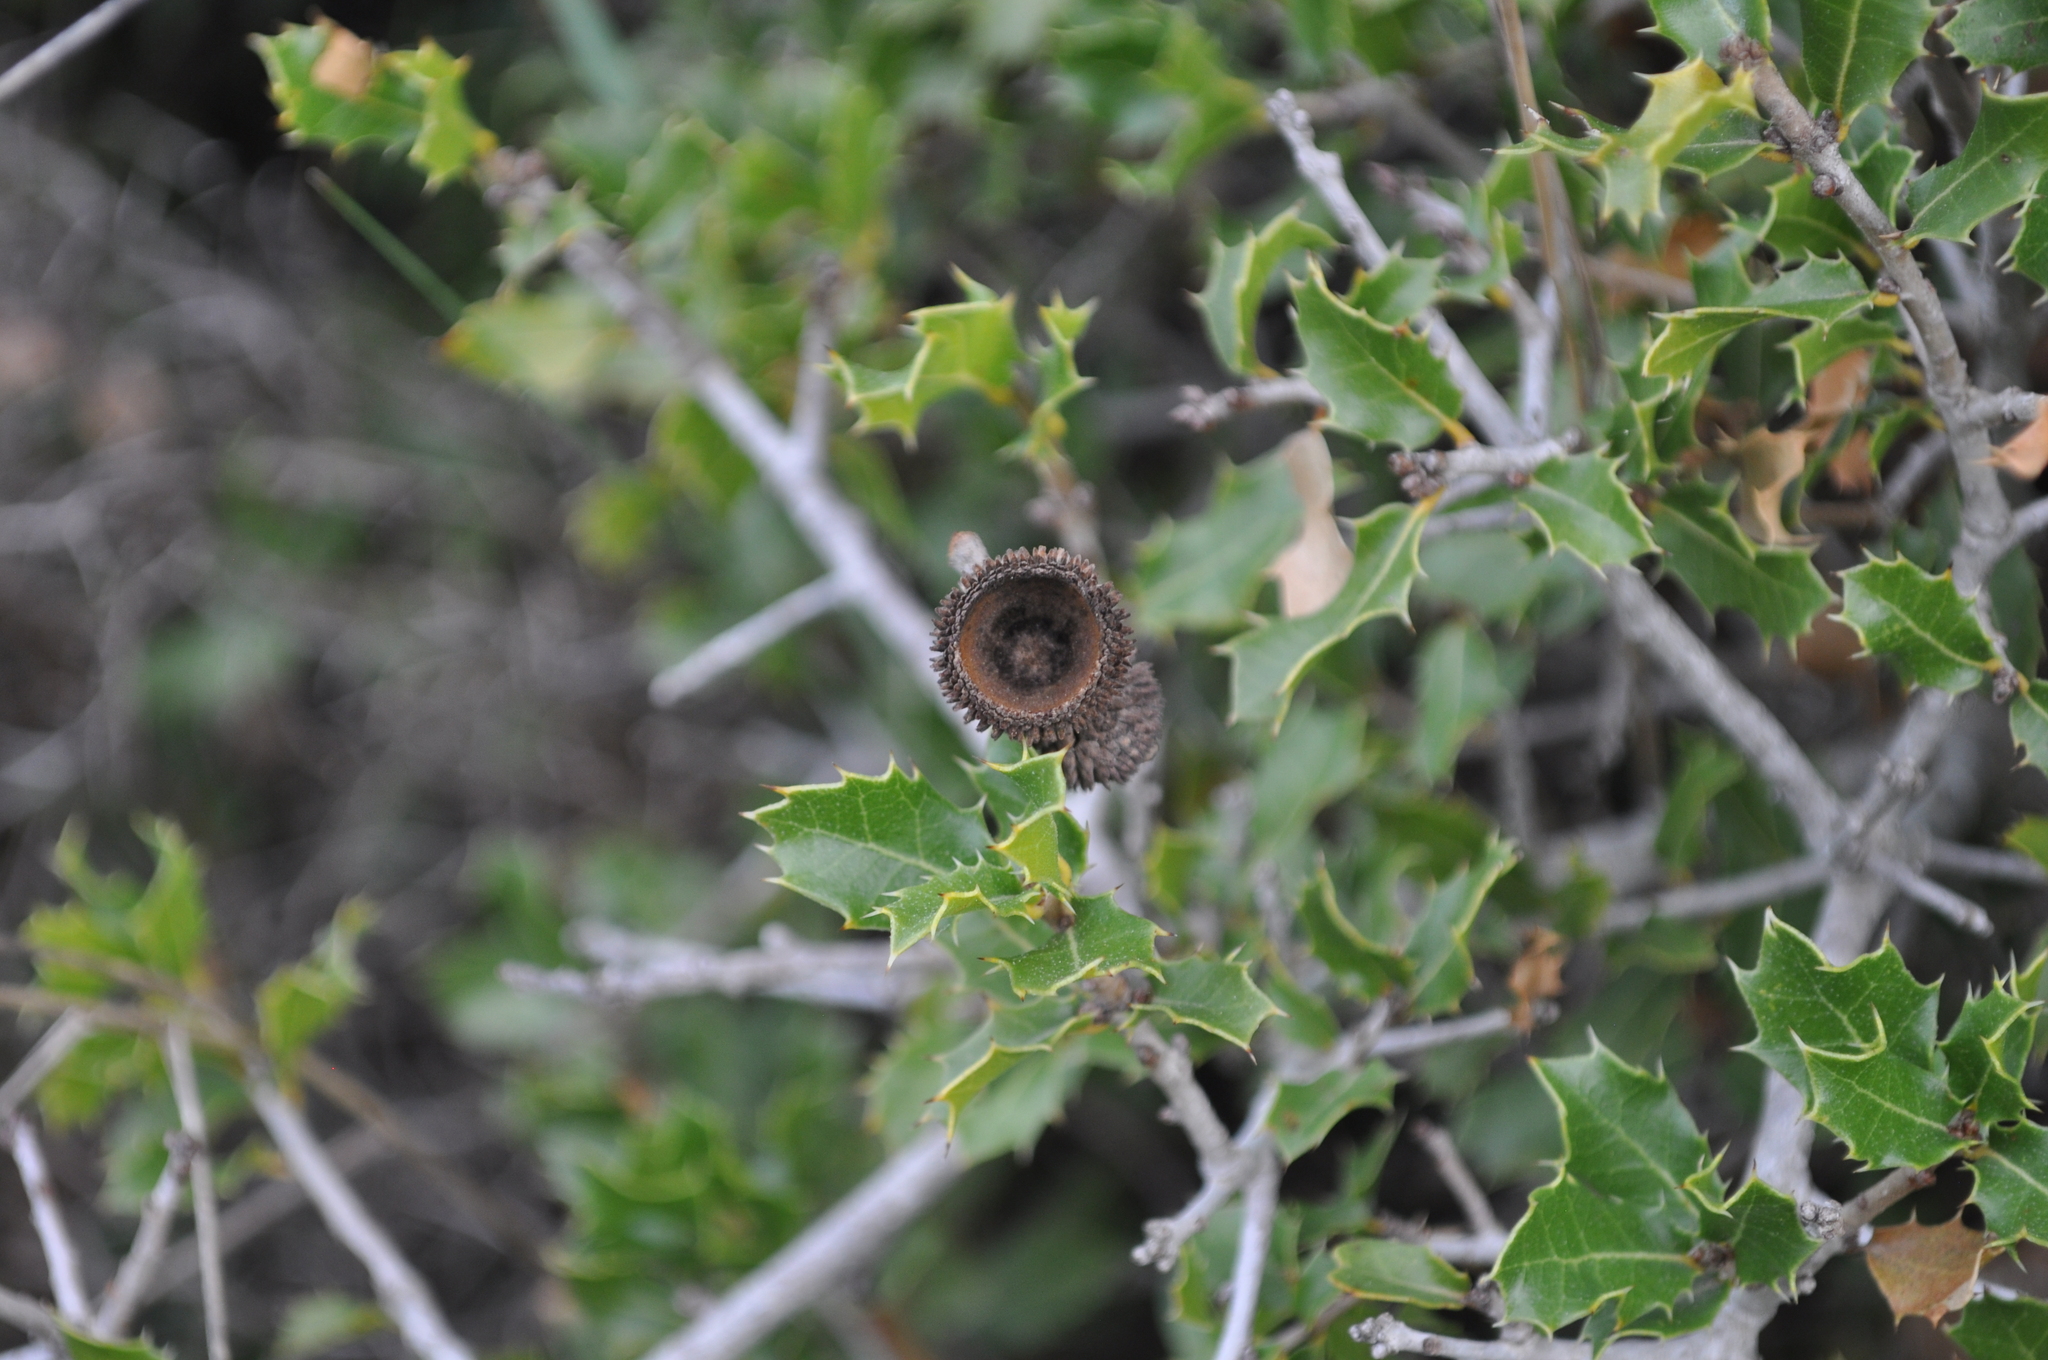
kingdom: Plantae
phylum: Tracheophyta
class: Magnoliopsida
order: Fagales
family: Fagaceae
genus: Quercus
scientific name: Quercus coccifera
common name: Kermes oak
